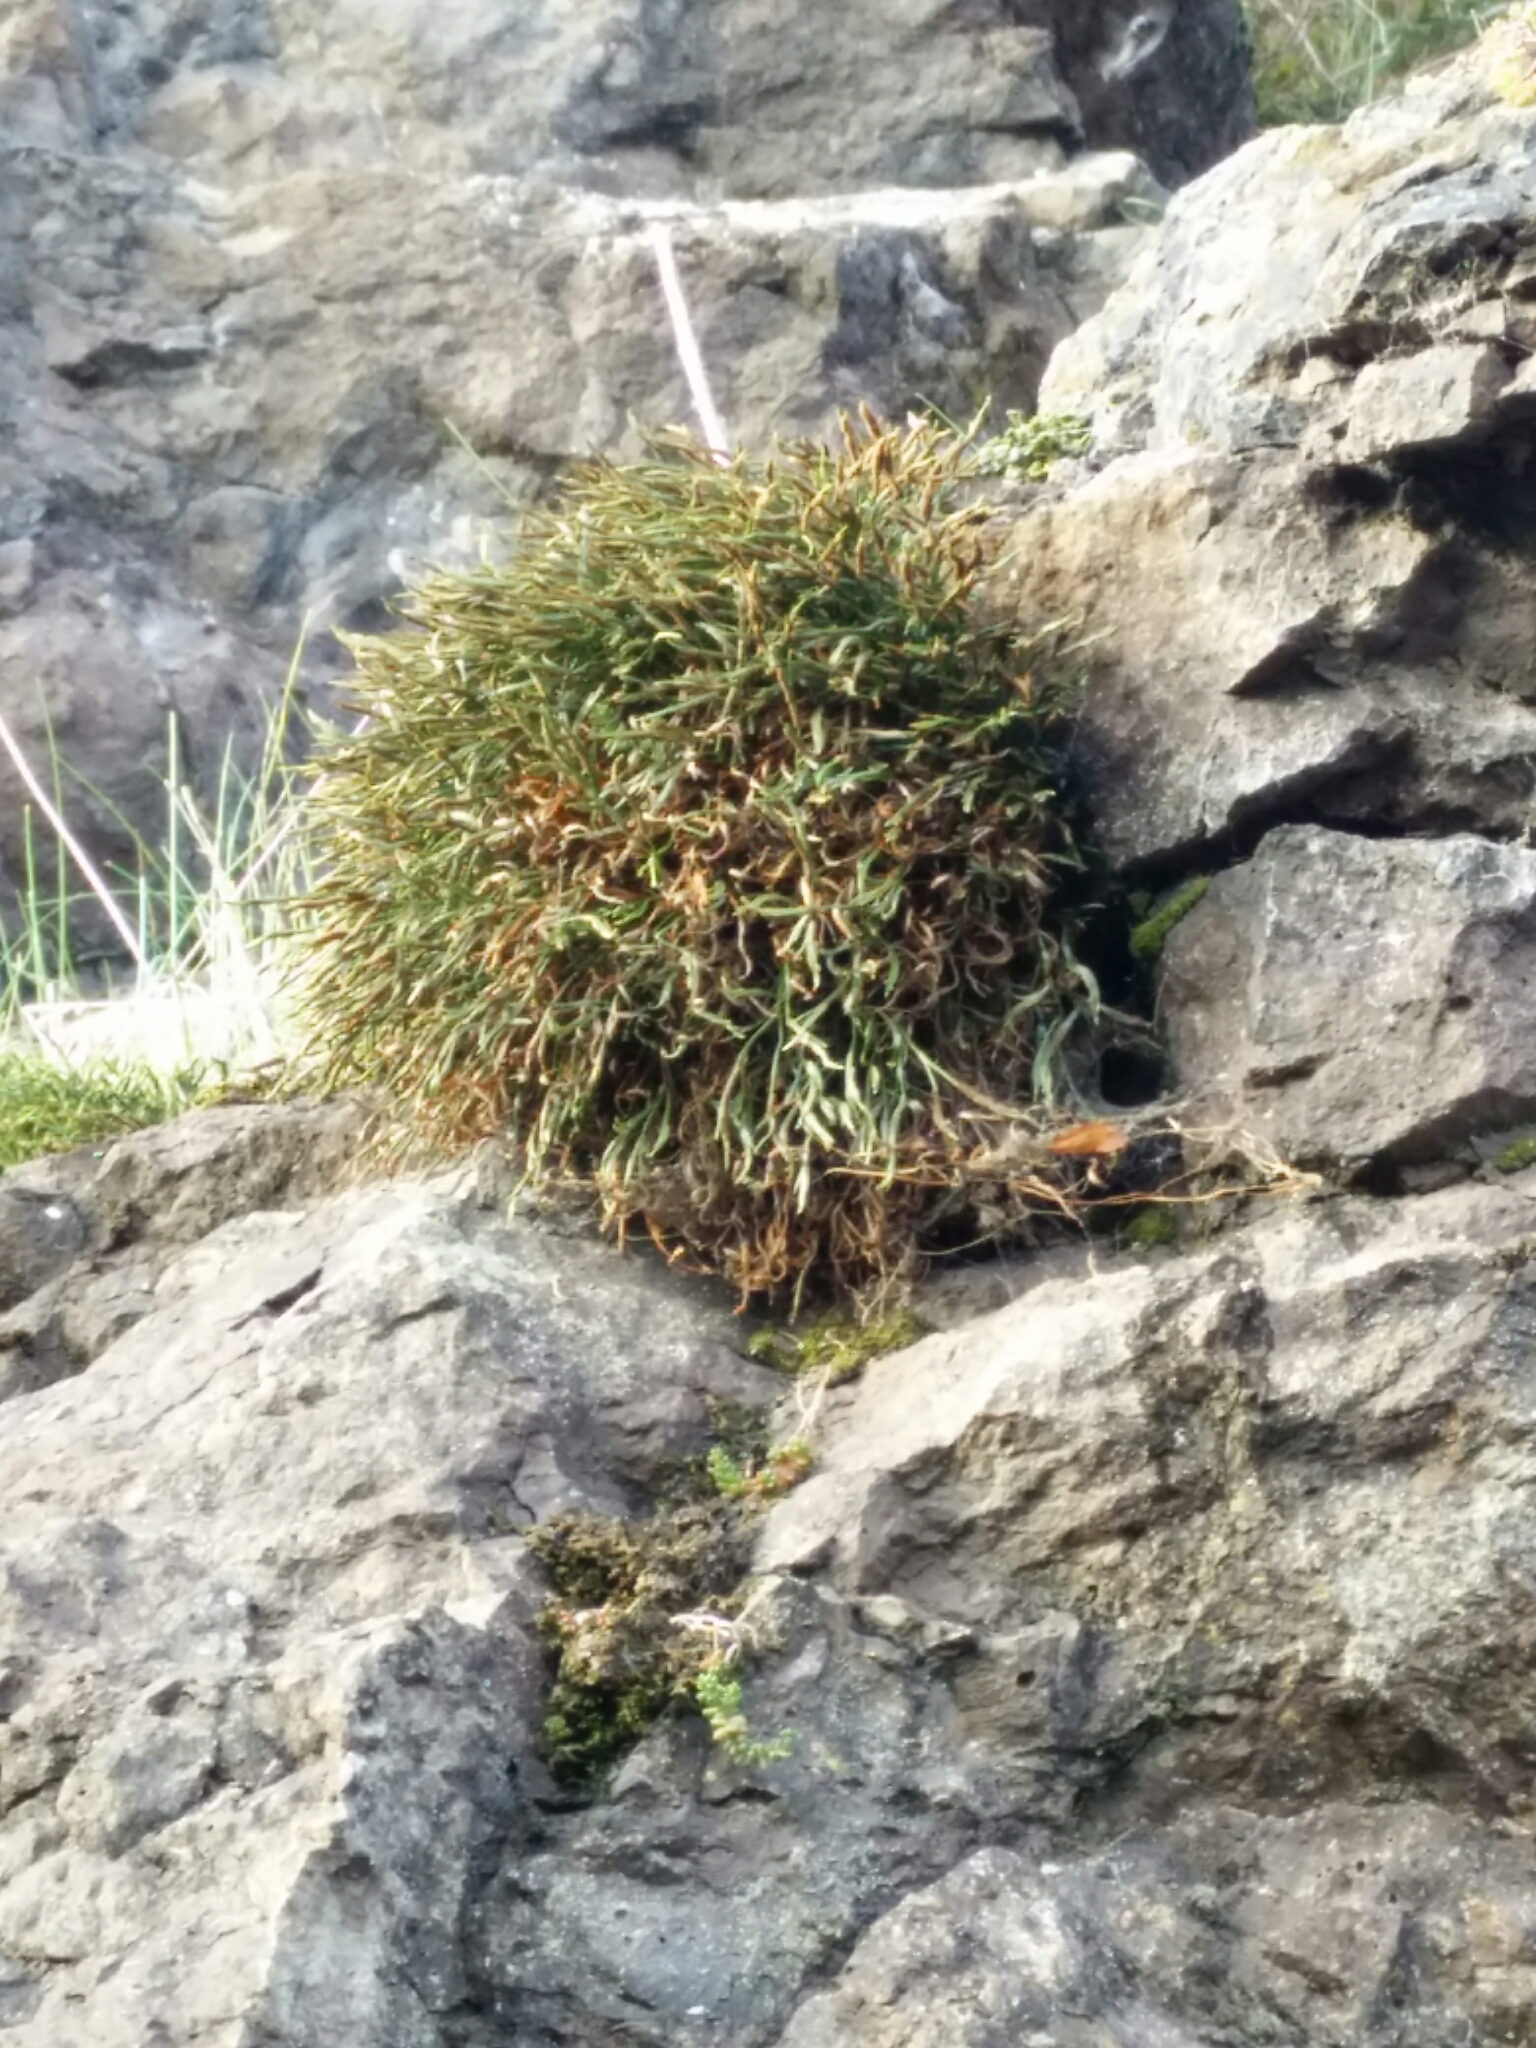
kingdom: Plantae
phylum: Tracheophyta
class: Polypodiopsida
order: Polypodiales
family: Aspleniaceae
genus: Asplenium
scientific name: Asplenium septentrionale
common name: Forked spleenwort
